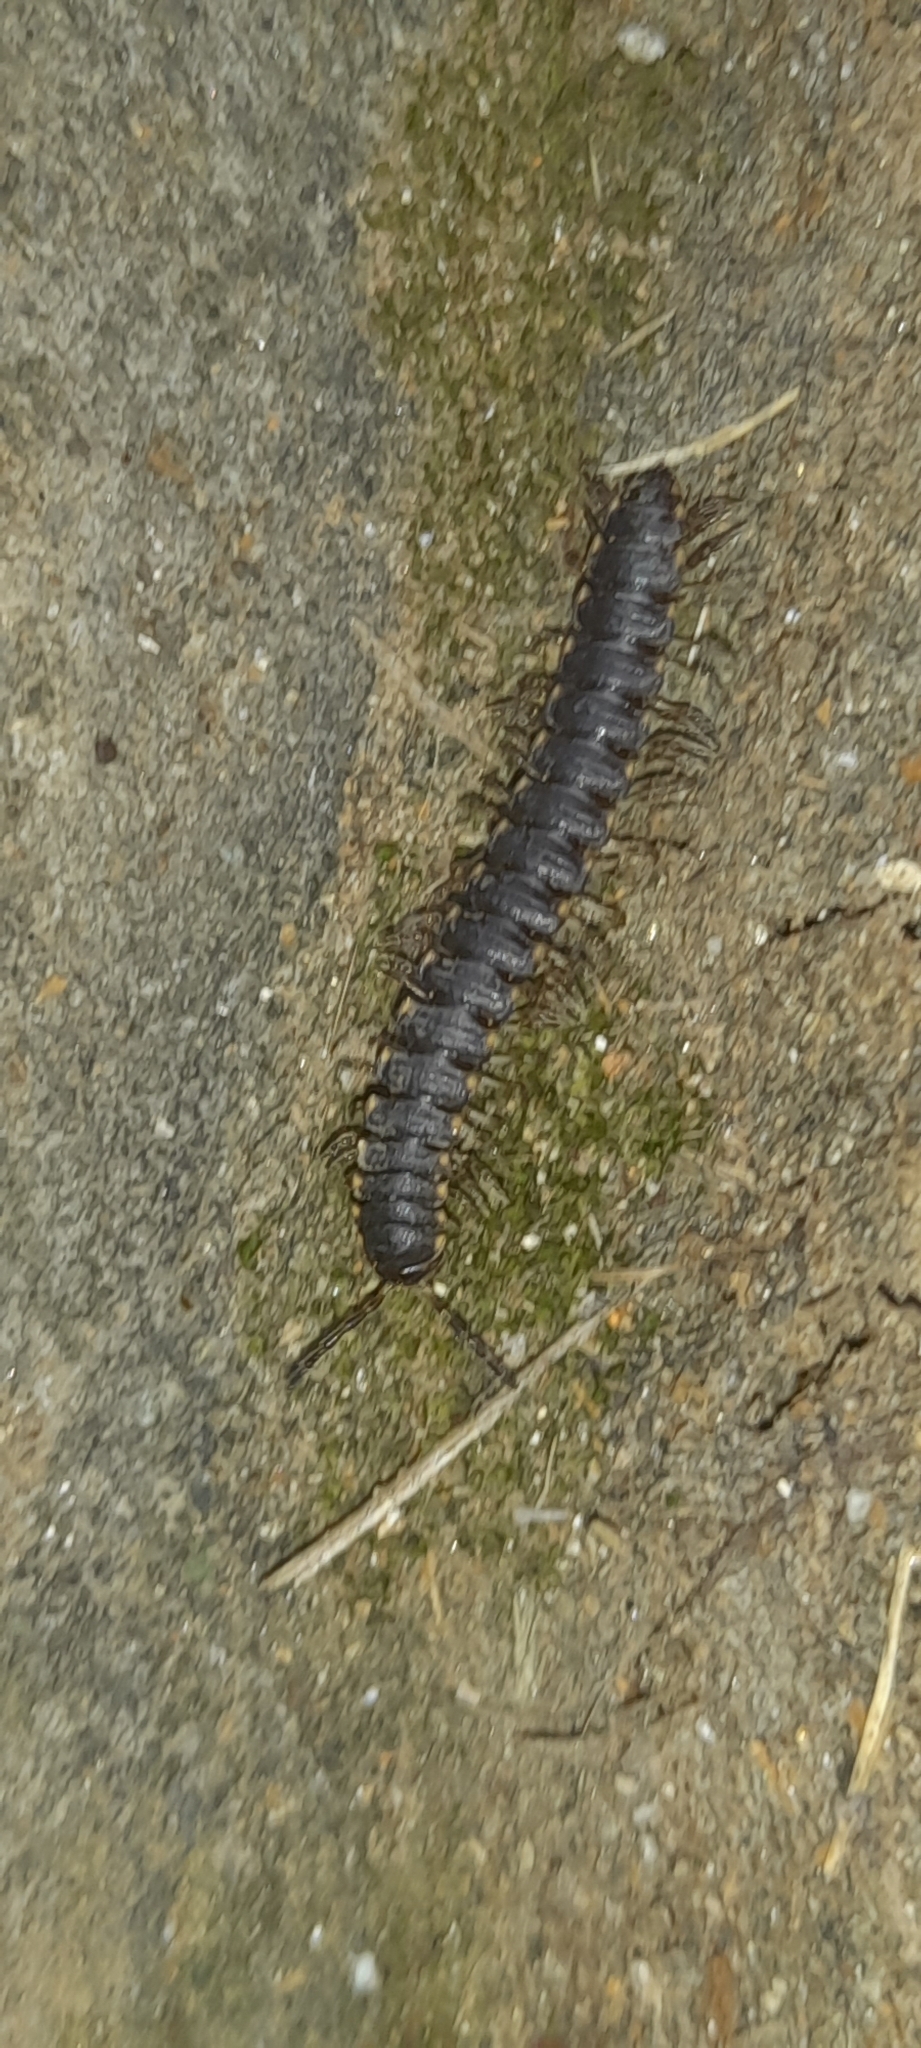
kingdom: Animalia
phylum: Arthropoda
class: Diplopoda
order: Polydesmida
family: Paradoxosomatidae
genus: Orthomorpha
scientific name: Orthomorpha coarctata
